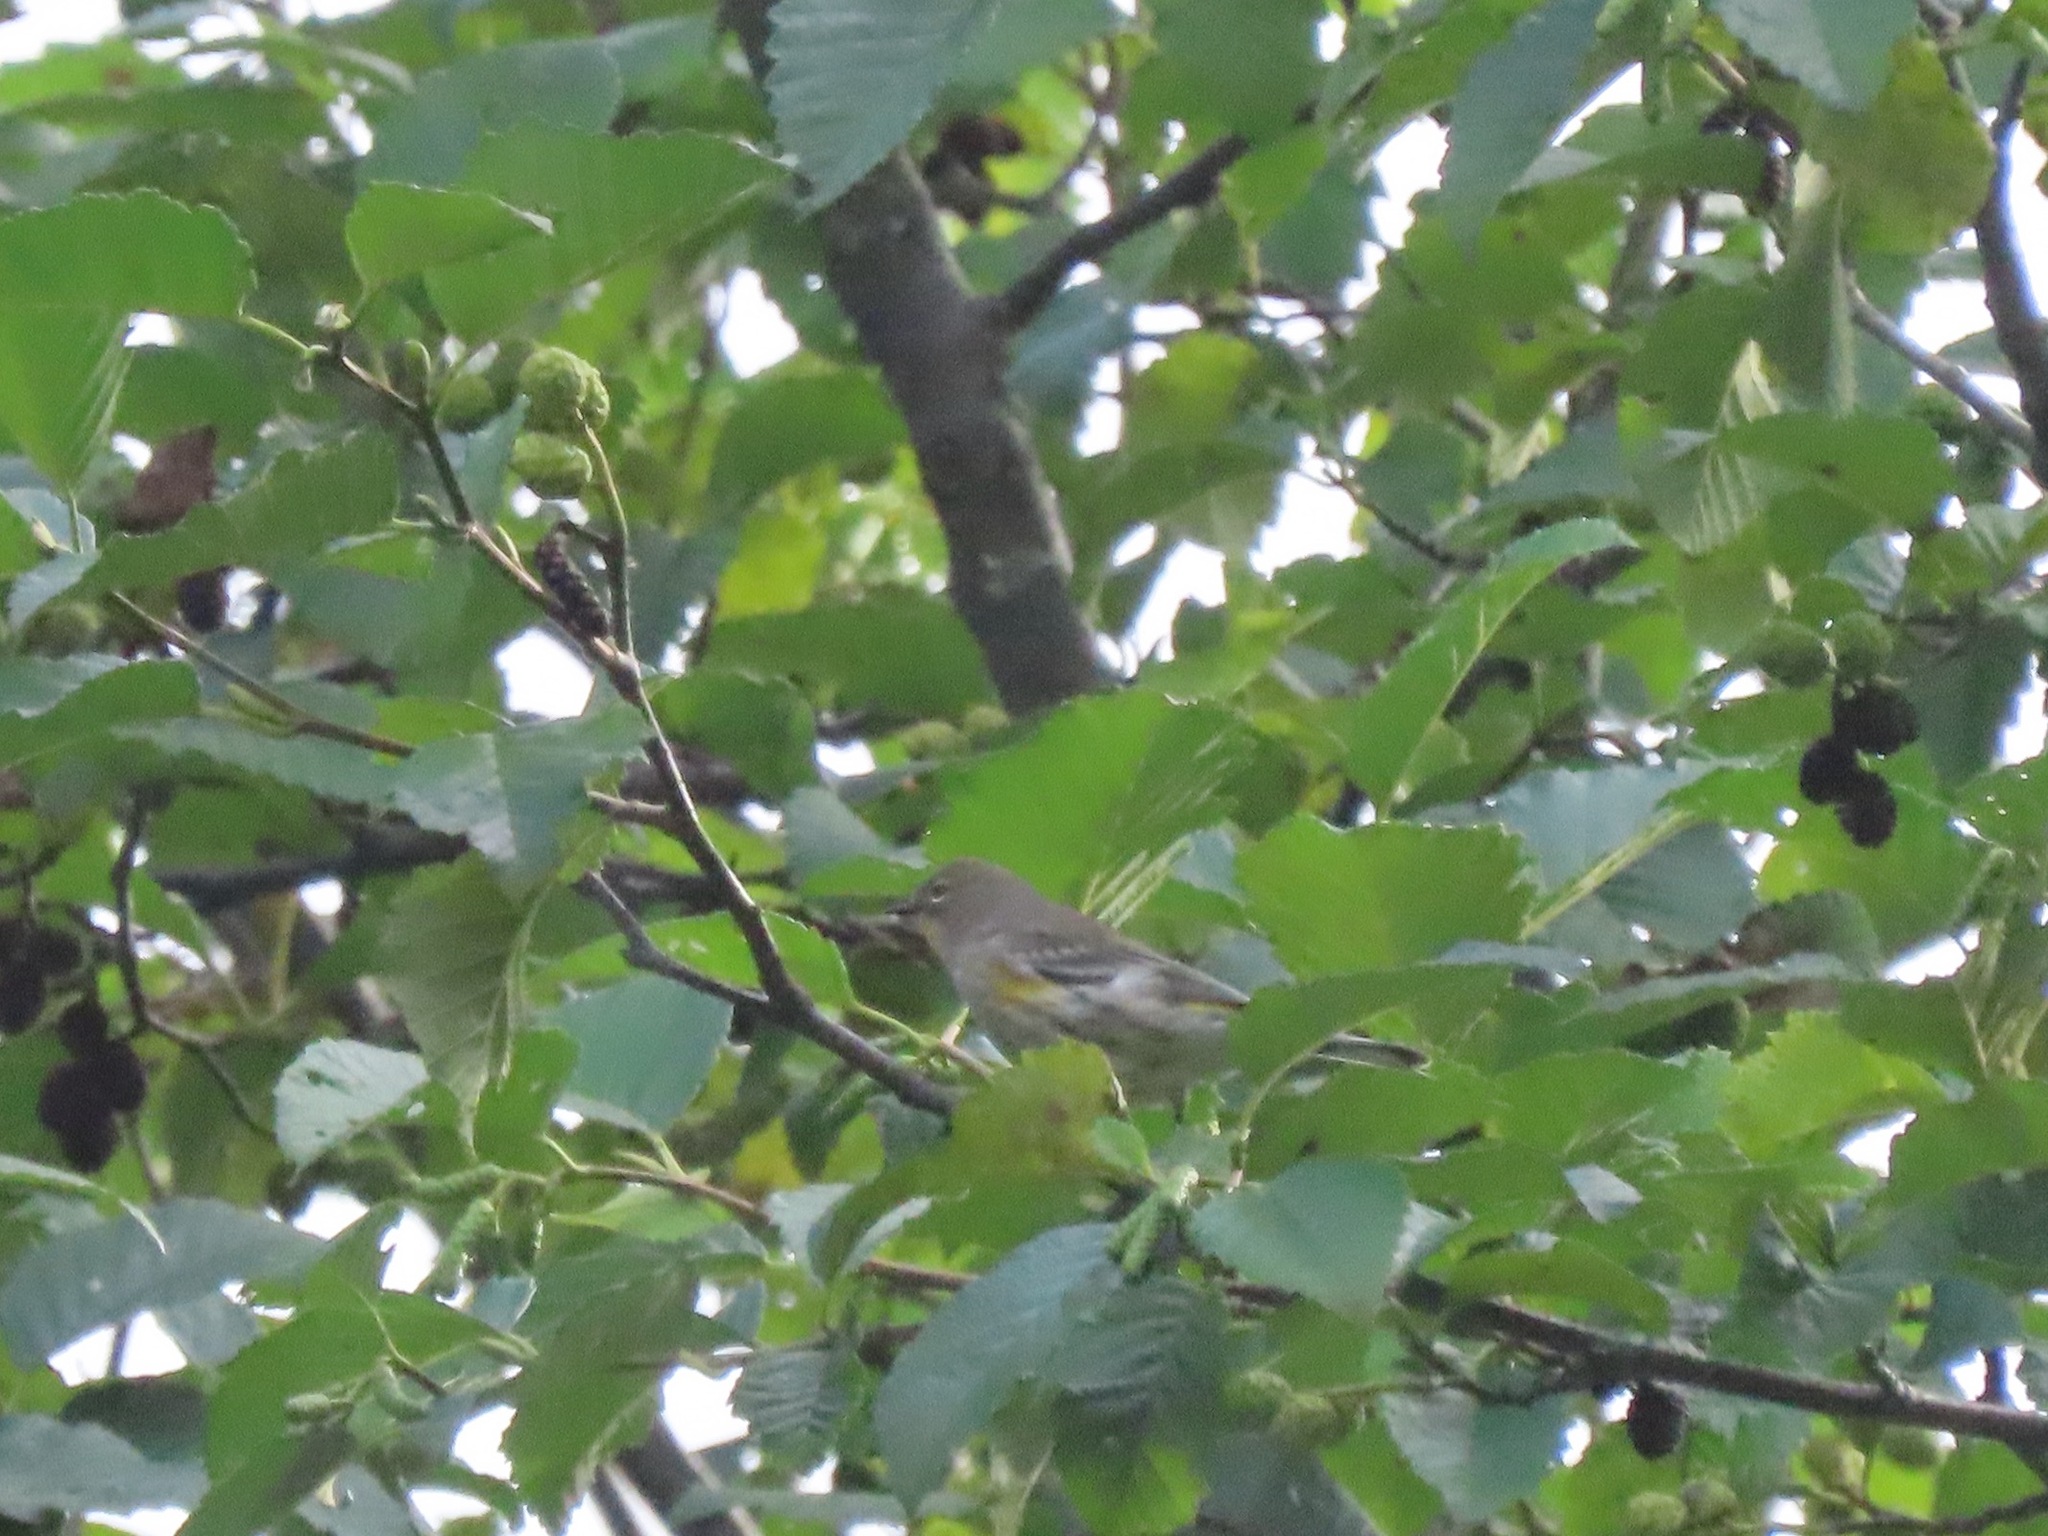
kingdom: Animalia
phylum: Chordata
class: Aves
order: Passeriformes
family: Parulidae
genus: Setophaga
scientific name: Setophaga coronata
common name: Myrtle warbler
